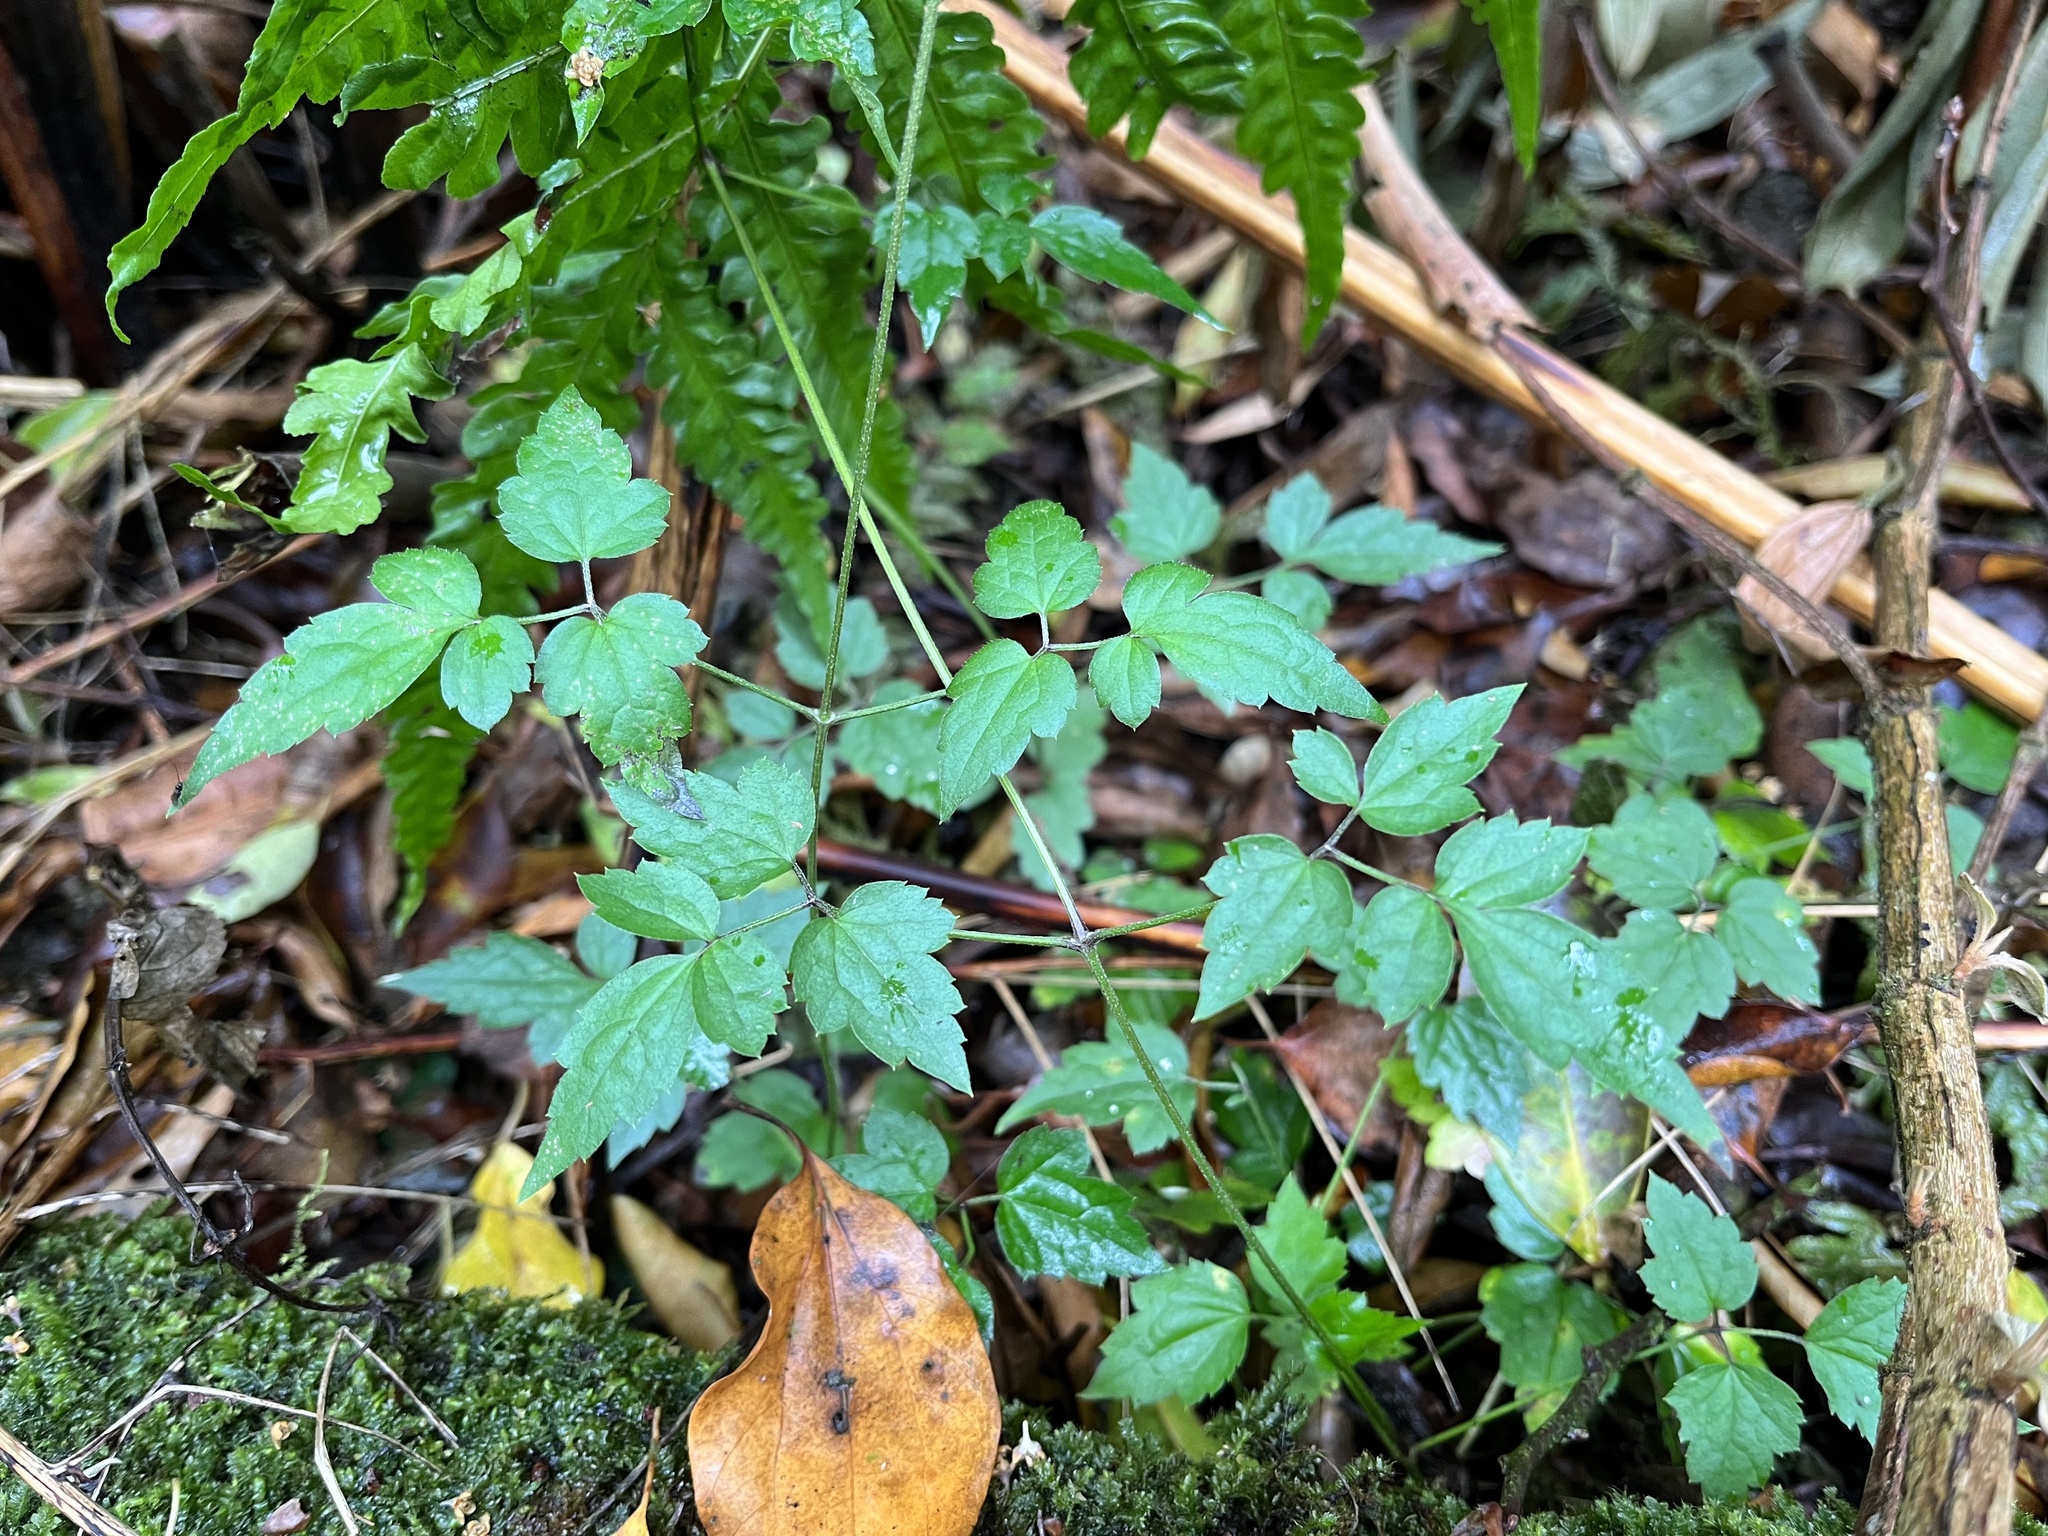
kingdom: Plantae
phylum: Tracheophyta
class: Magnoliopsida
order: Ranunculales
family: Ranunculaceae
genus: Clematis
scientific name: Clematis grata
